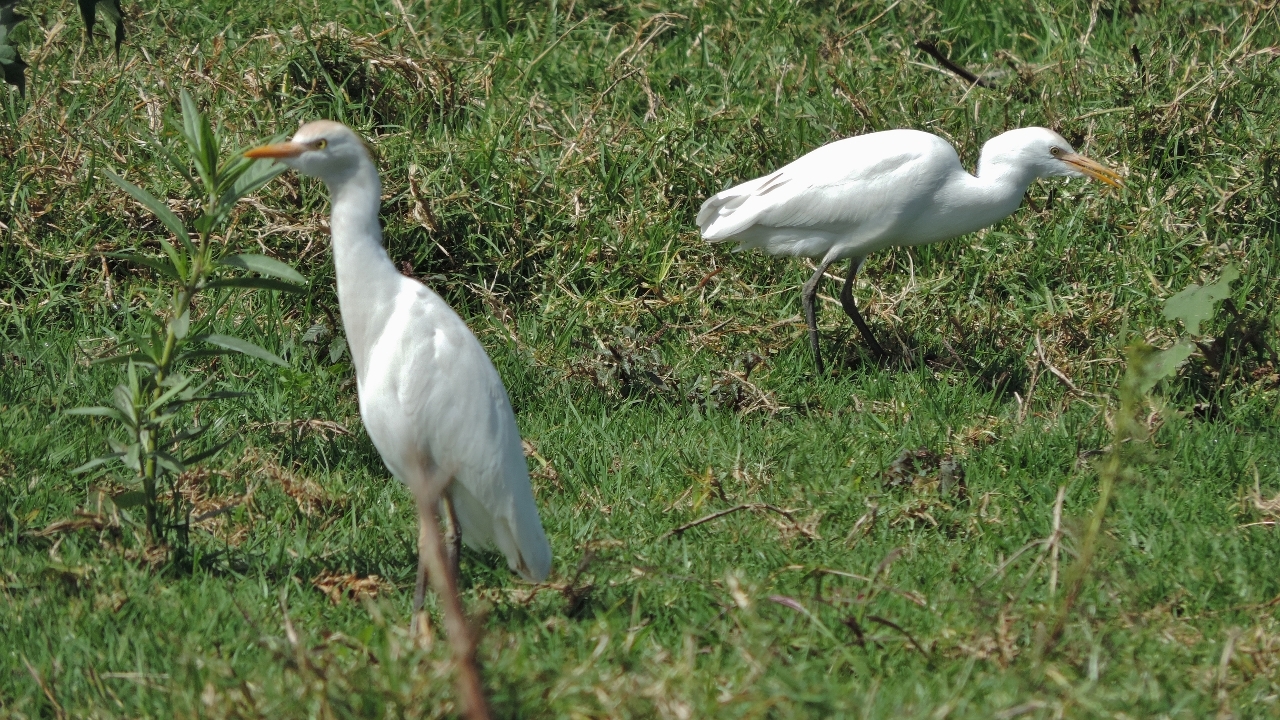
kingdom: Animalia
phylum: Chordata
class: Aves
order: Pelecaniformes
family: Ardeidae
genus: Bubulcus
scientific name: Bubulcus ibis
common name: Cattle egret
